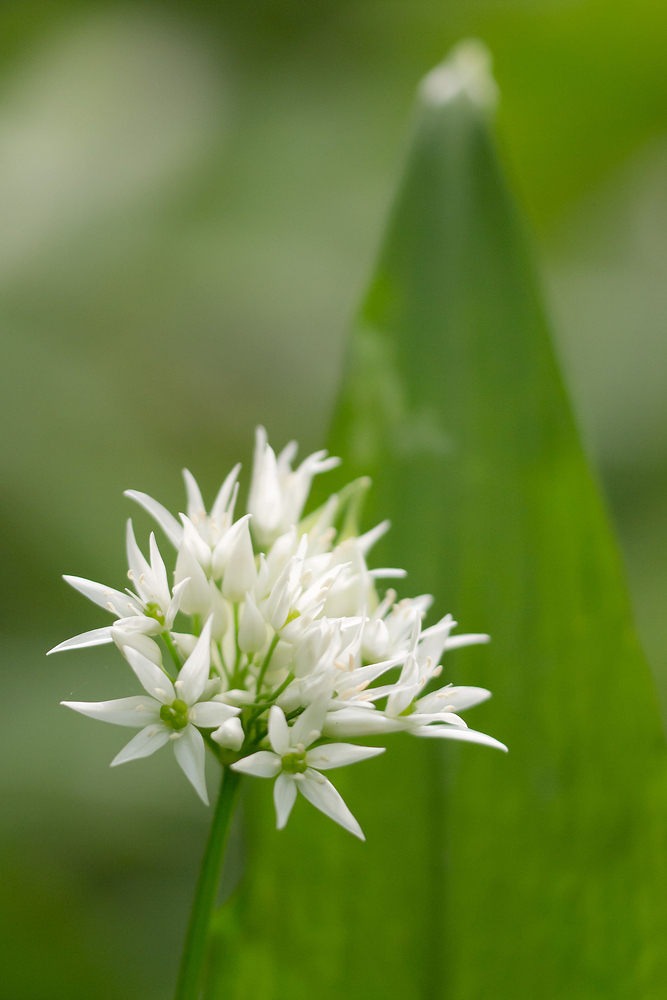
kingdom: Plantae
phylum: Tracheophyta
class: Liliopsida
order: Asparagales
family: Amaryllidaceae
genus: Allium
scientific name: Allium ursinum
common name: Ramsons
